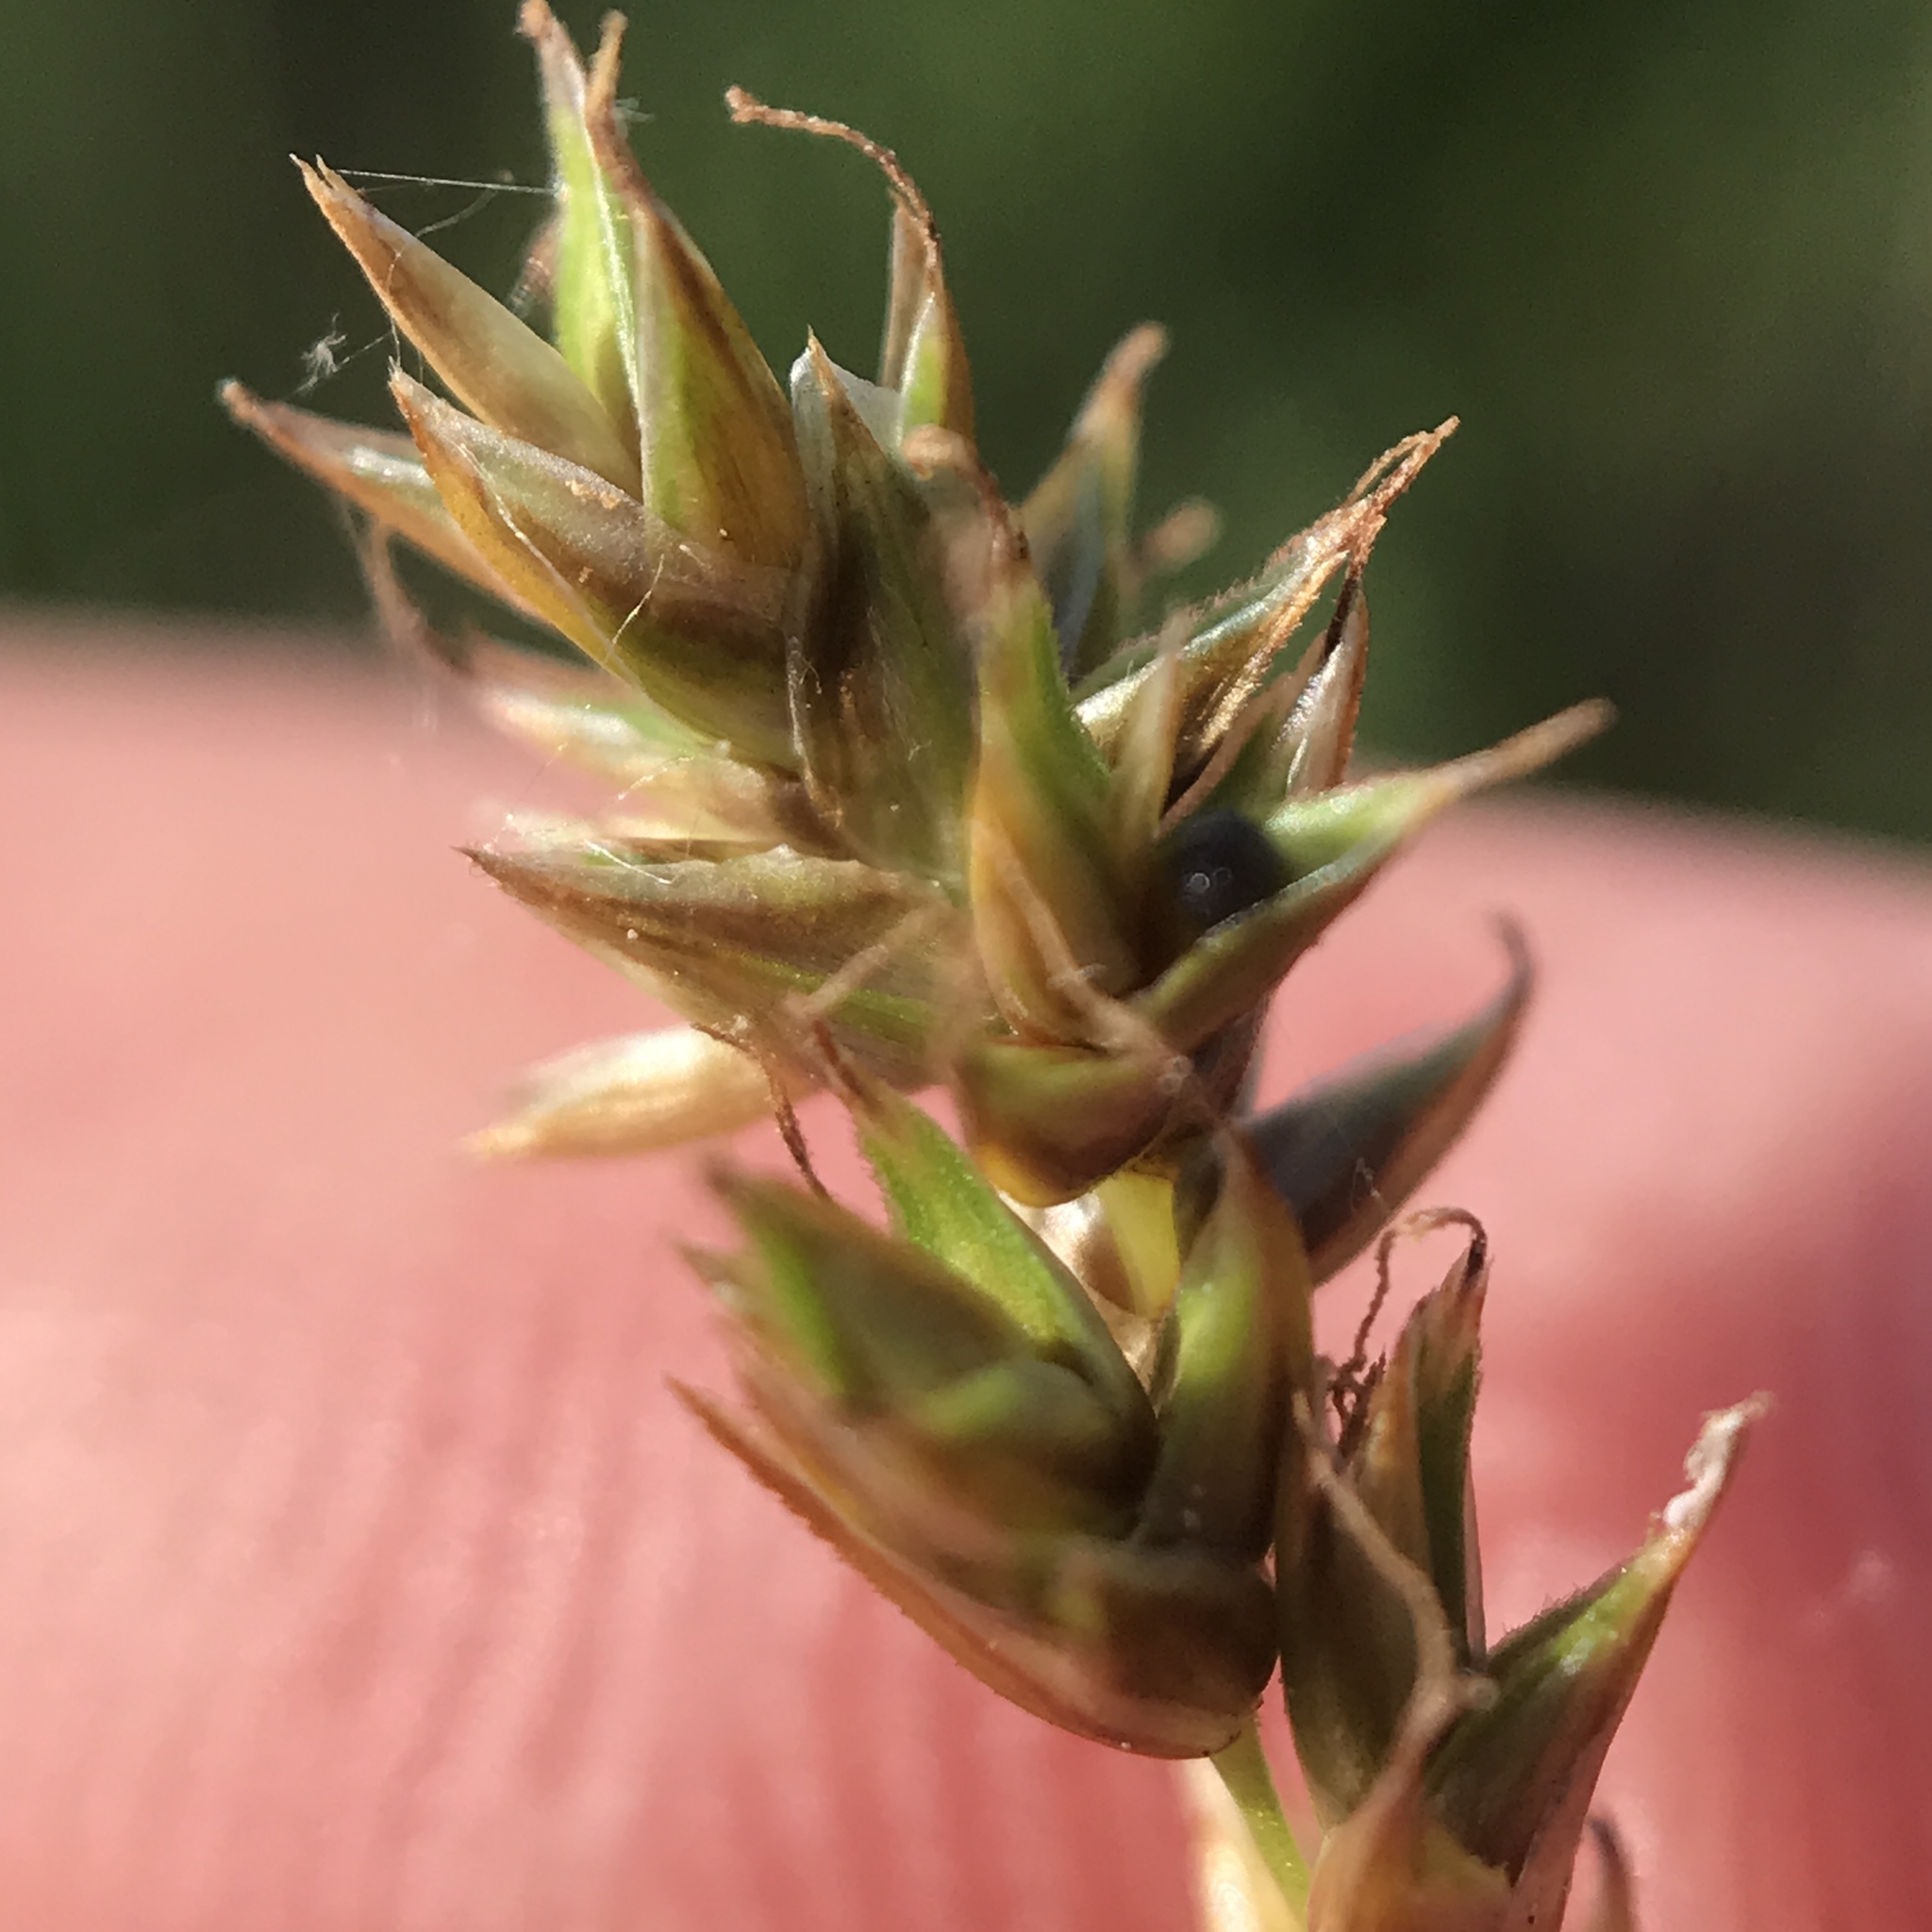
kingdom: Plantae
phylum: Tracheophyta
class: Liliopsida
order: Poales
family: Cyperaceae
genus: Carex
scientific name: Carex prairea
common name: Prairie sedge
